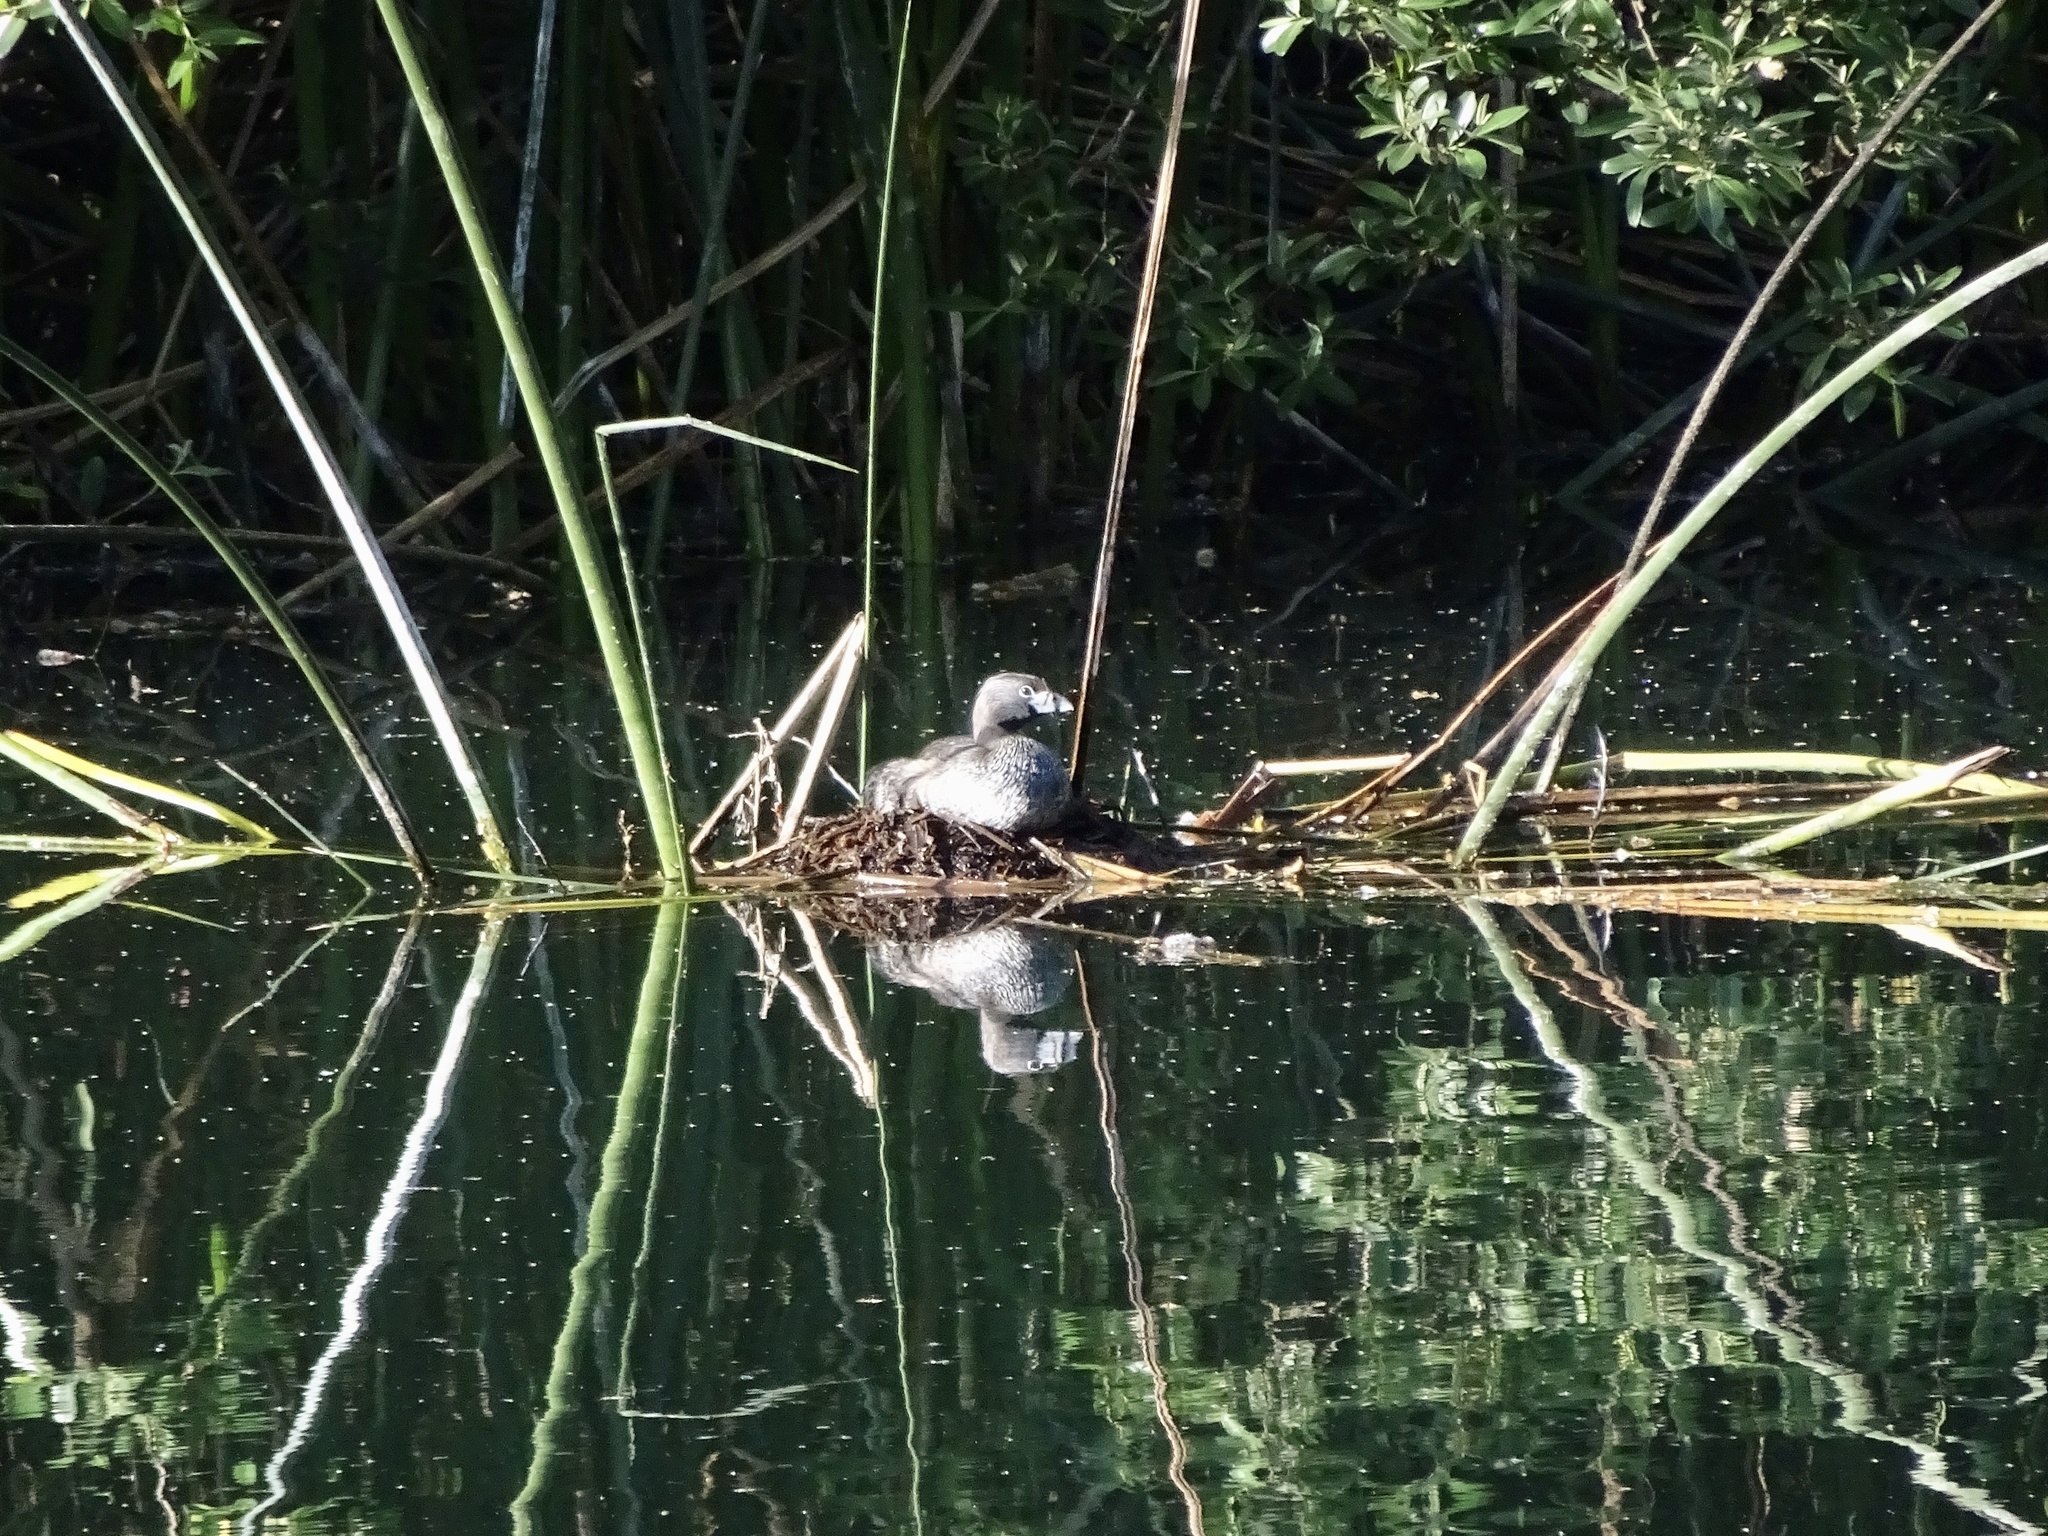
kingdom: Animalia
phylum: Chordata
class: Aves
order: Podicipediformes
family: Podicipedidae
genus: Podilymbus
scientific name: Podilymbus podiceps
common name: Pied-billed grebe
